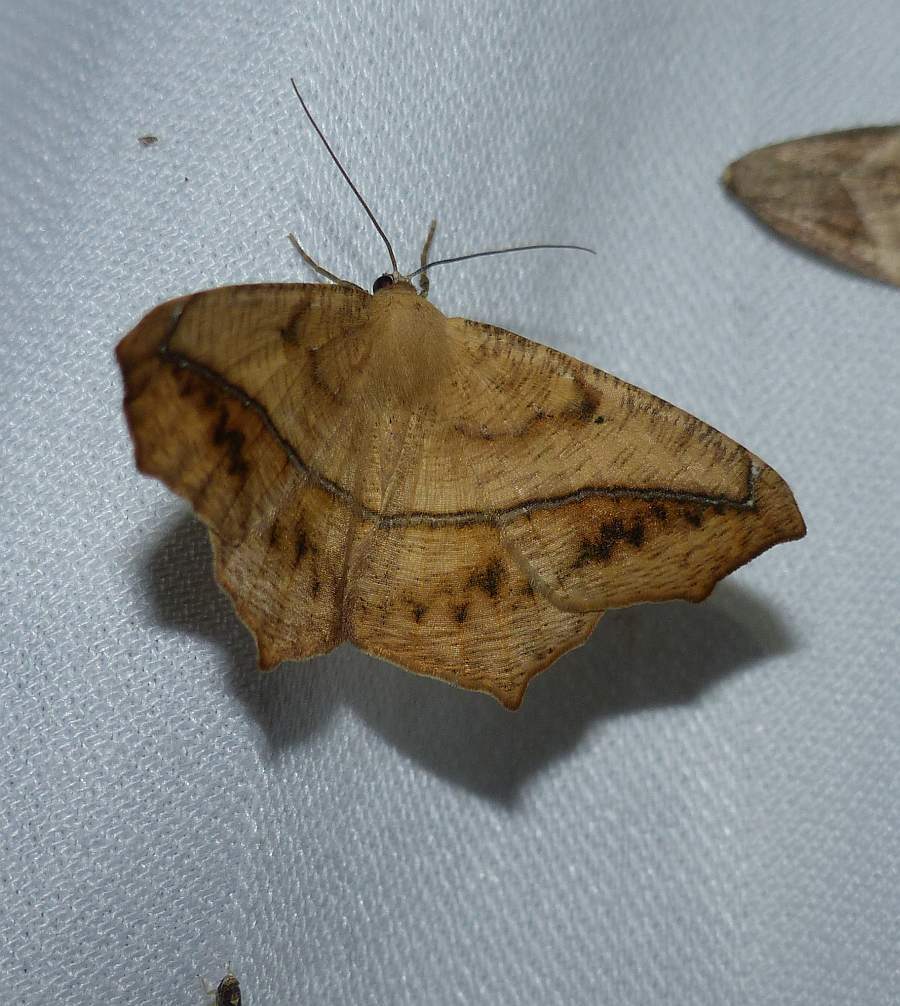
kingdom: Animalia
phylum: Arthropoda
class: Insecta
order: Lepidoptera
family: Geometridae
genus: Prochoerodes
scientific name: Prochoerodes lineola
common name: Large maple spanworm
